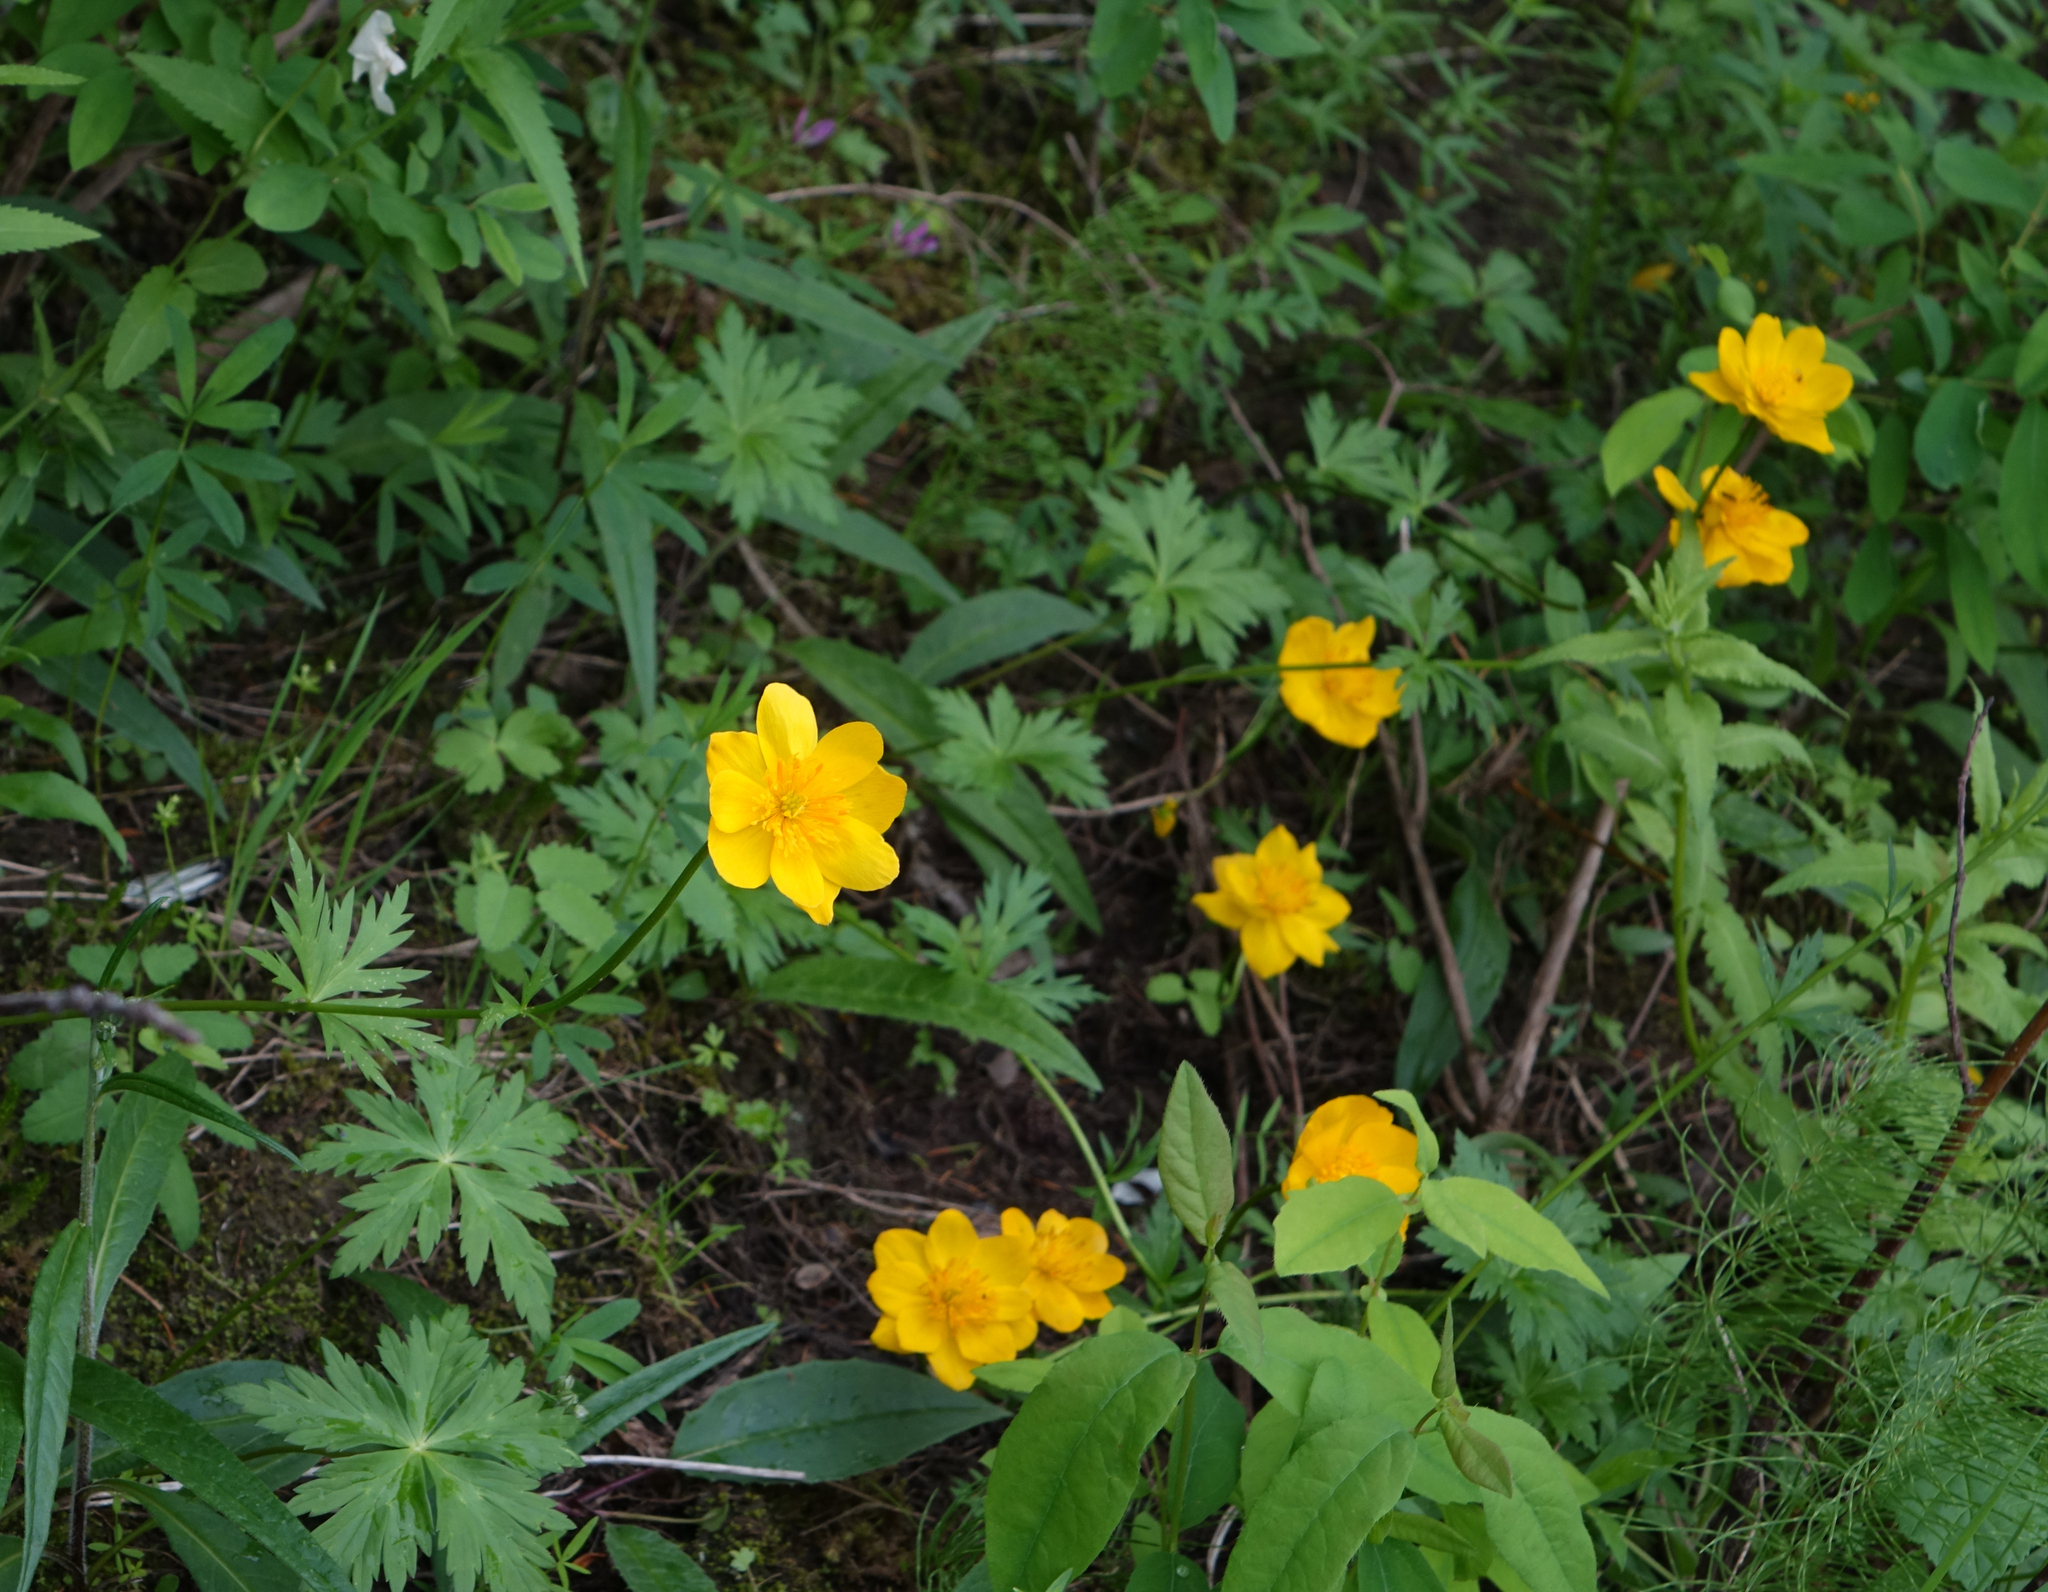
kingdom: Plantae
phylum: Tracheophyta
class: Magnoliopsida
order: Ranunculales
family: Ranunculaceae
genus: Trollius
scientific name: Trollius membranostylis
